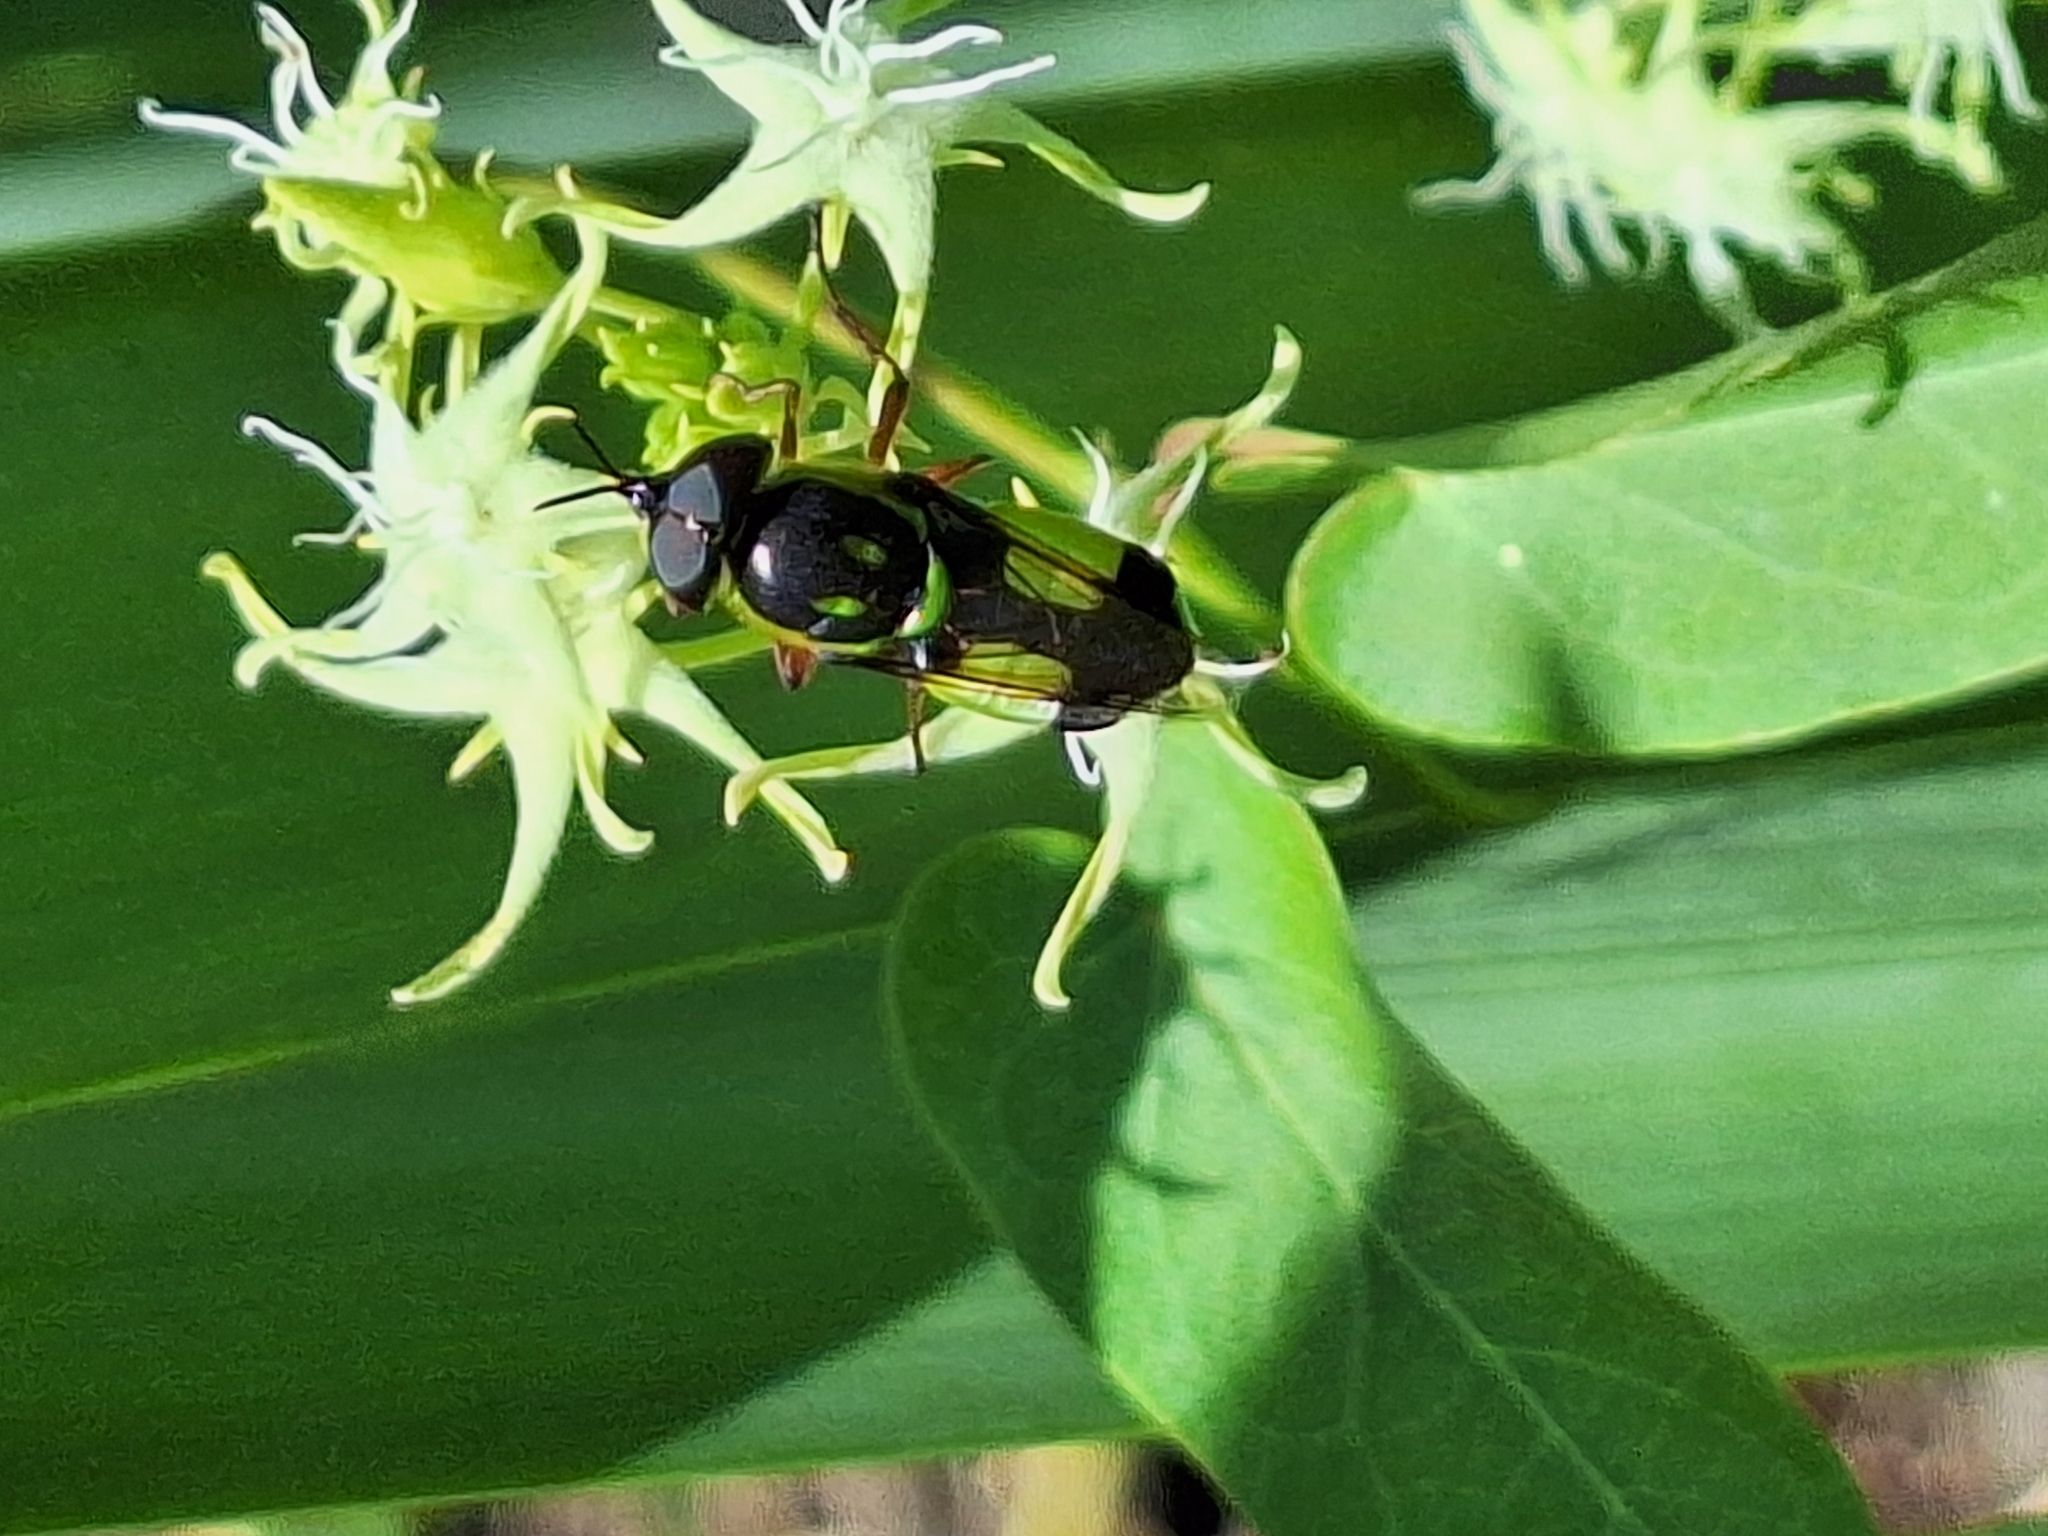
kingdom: Animalia
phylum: Arthropoda
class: Insecta
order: Diptera
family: Stratiomyidae
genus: Hedriodiscus
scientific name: Hedriodiscus pulcher
